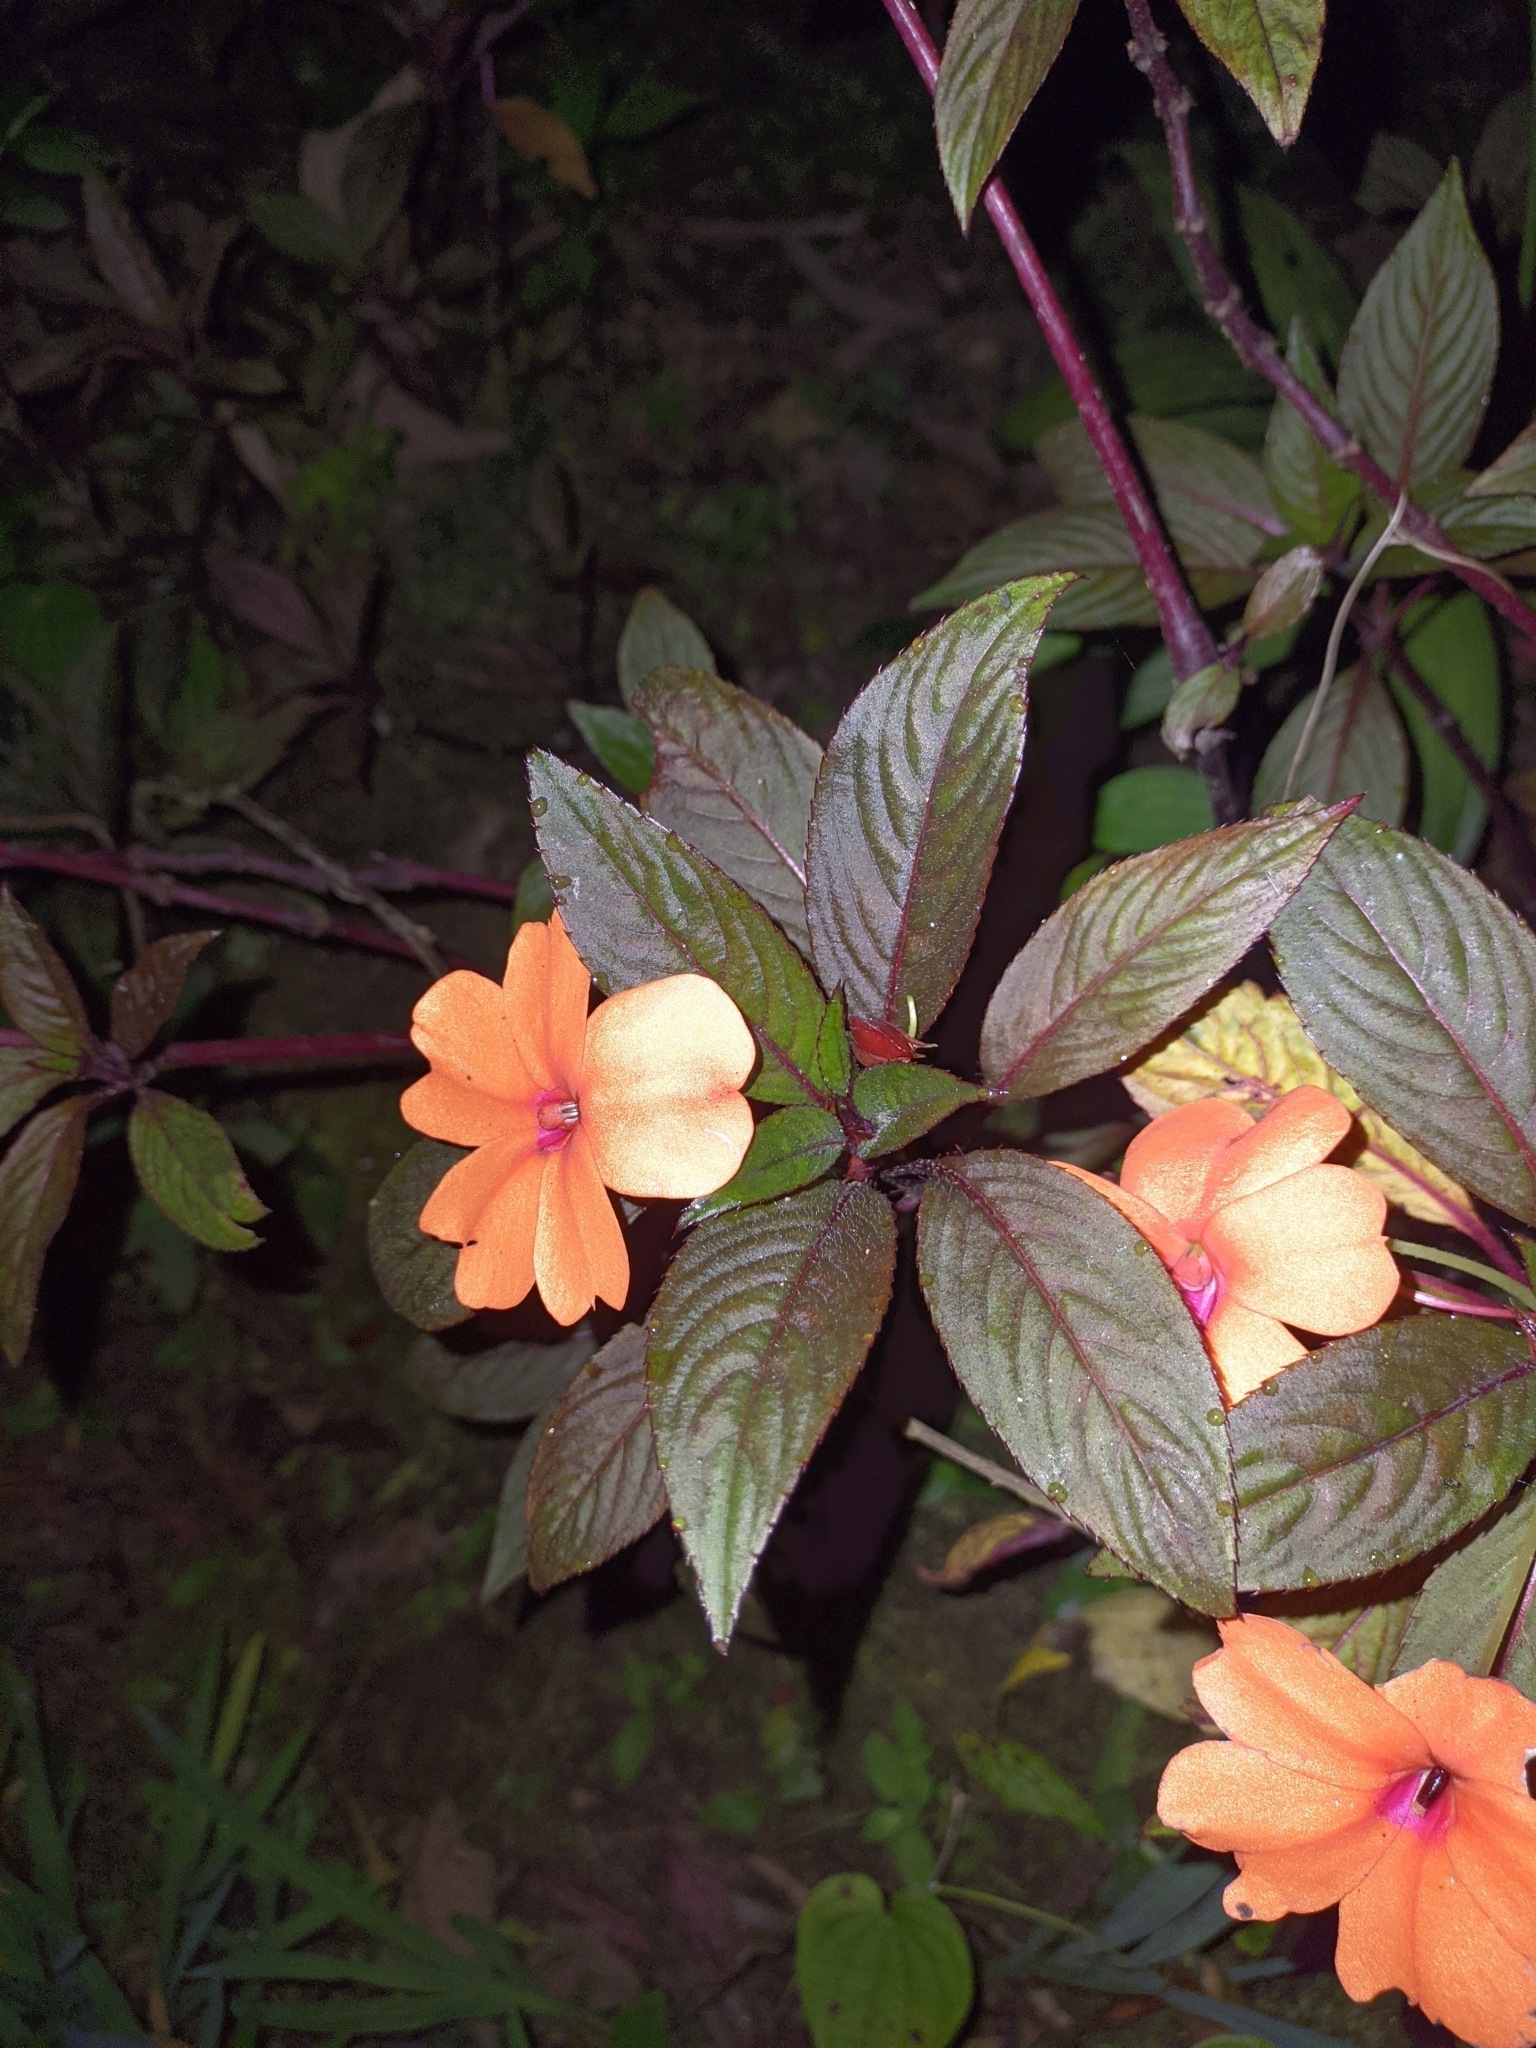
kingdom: Plantae
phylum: Tracheophyta
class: Magnoliopsida
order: Ericales
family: Balsaminaceae
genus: Impatiens
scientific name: Impatiens hawkeri
